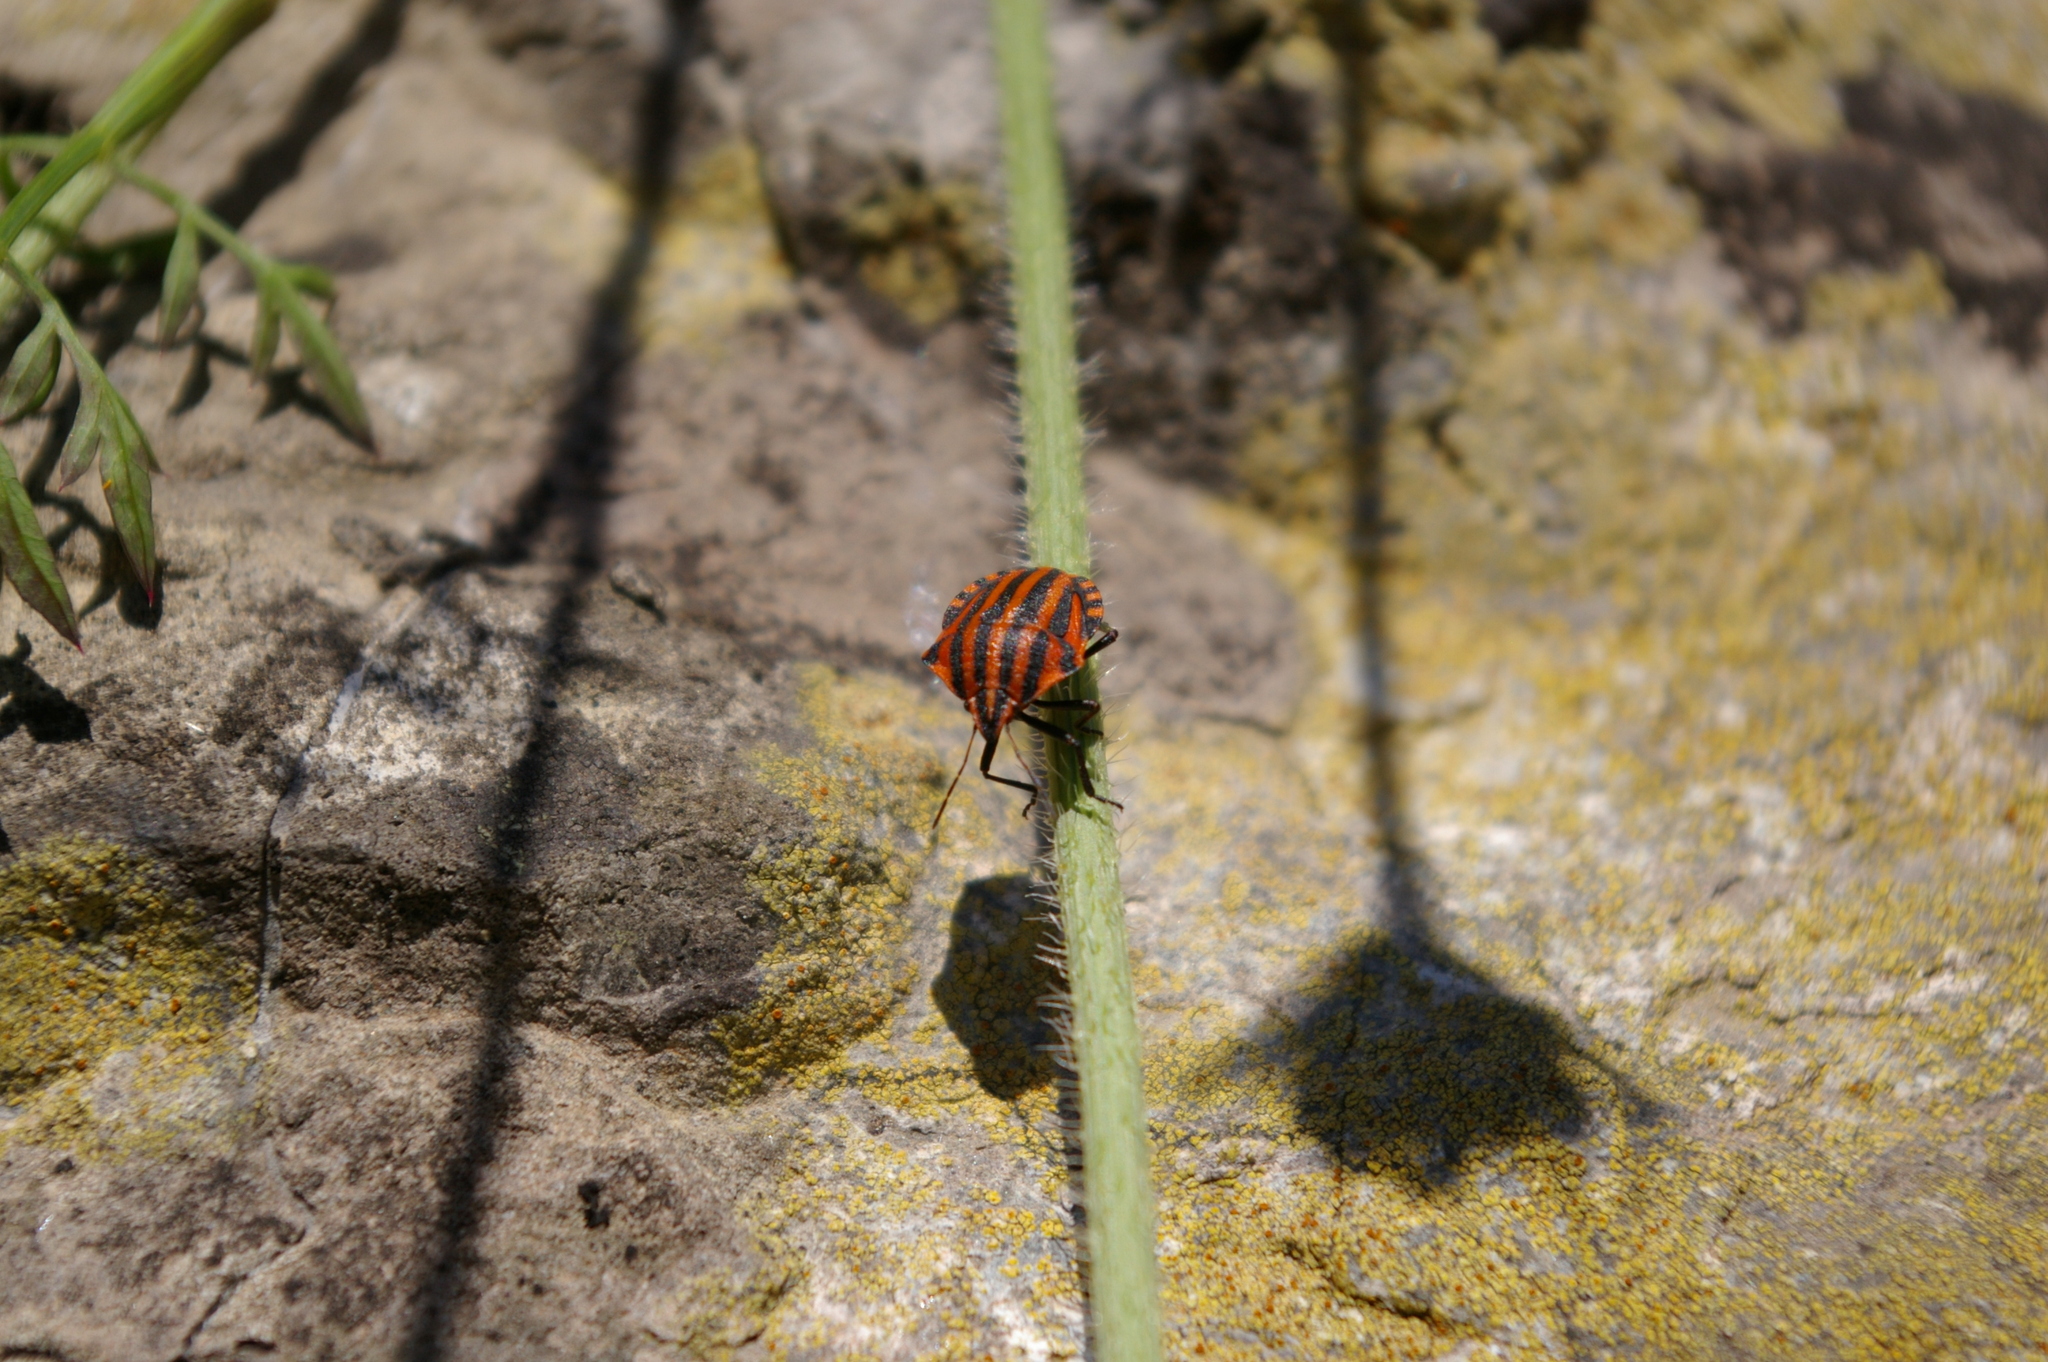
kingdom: Animalia
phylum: Arthropoda
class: Insecta
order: Hemiptera
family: Pentatomidae
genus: Graphosoma
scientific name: Graphosoma italicum
